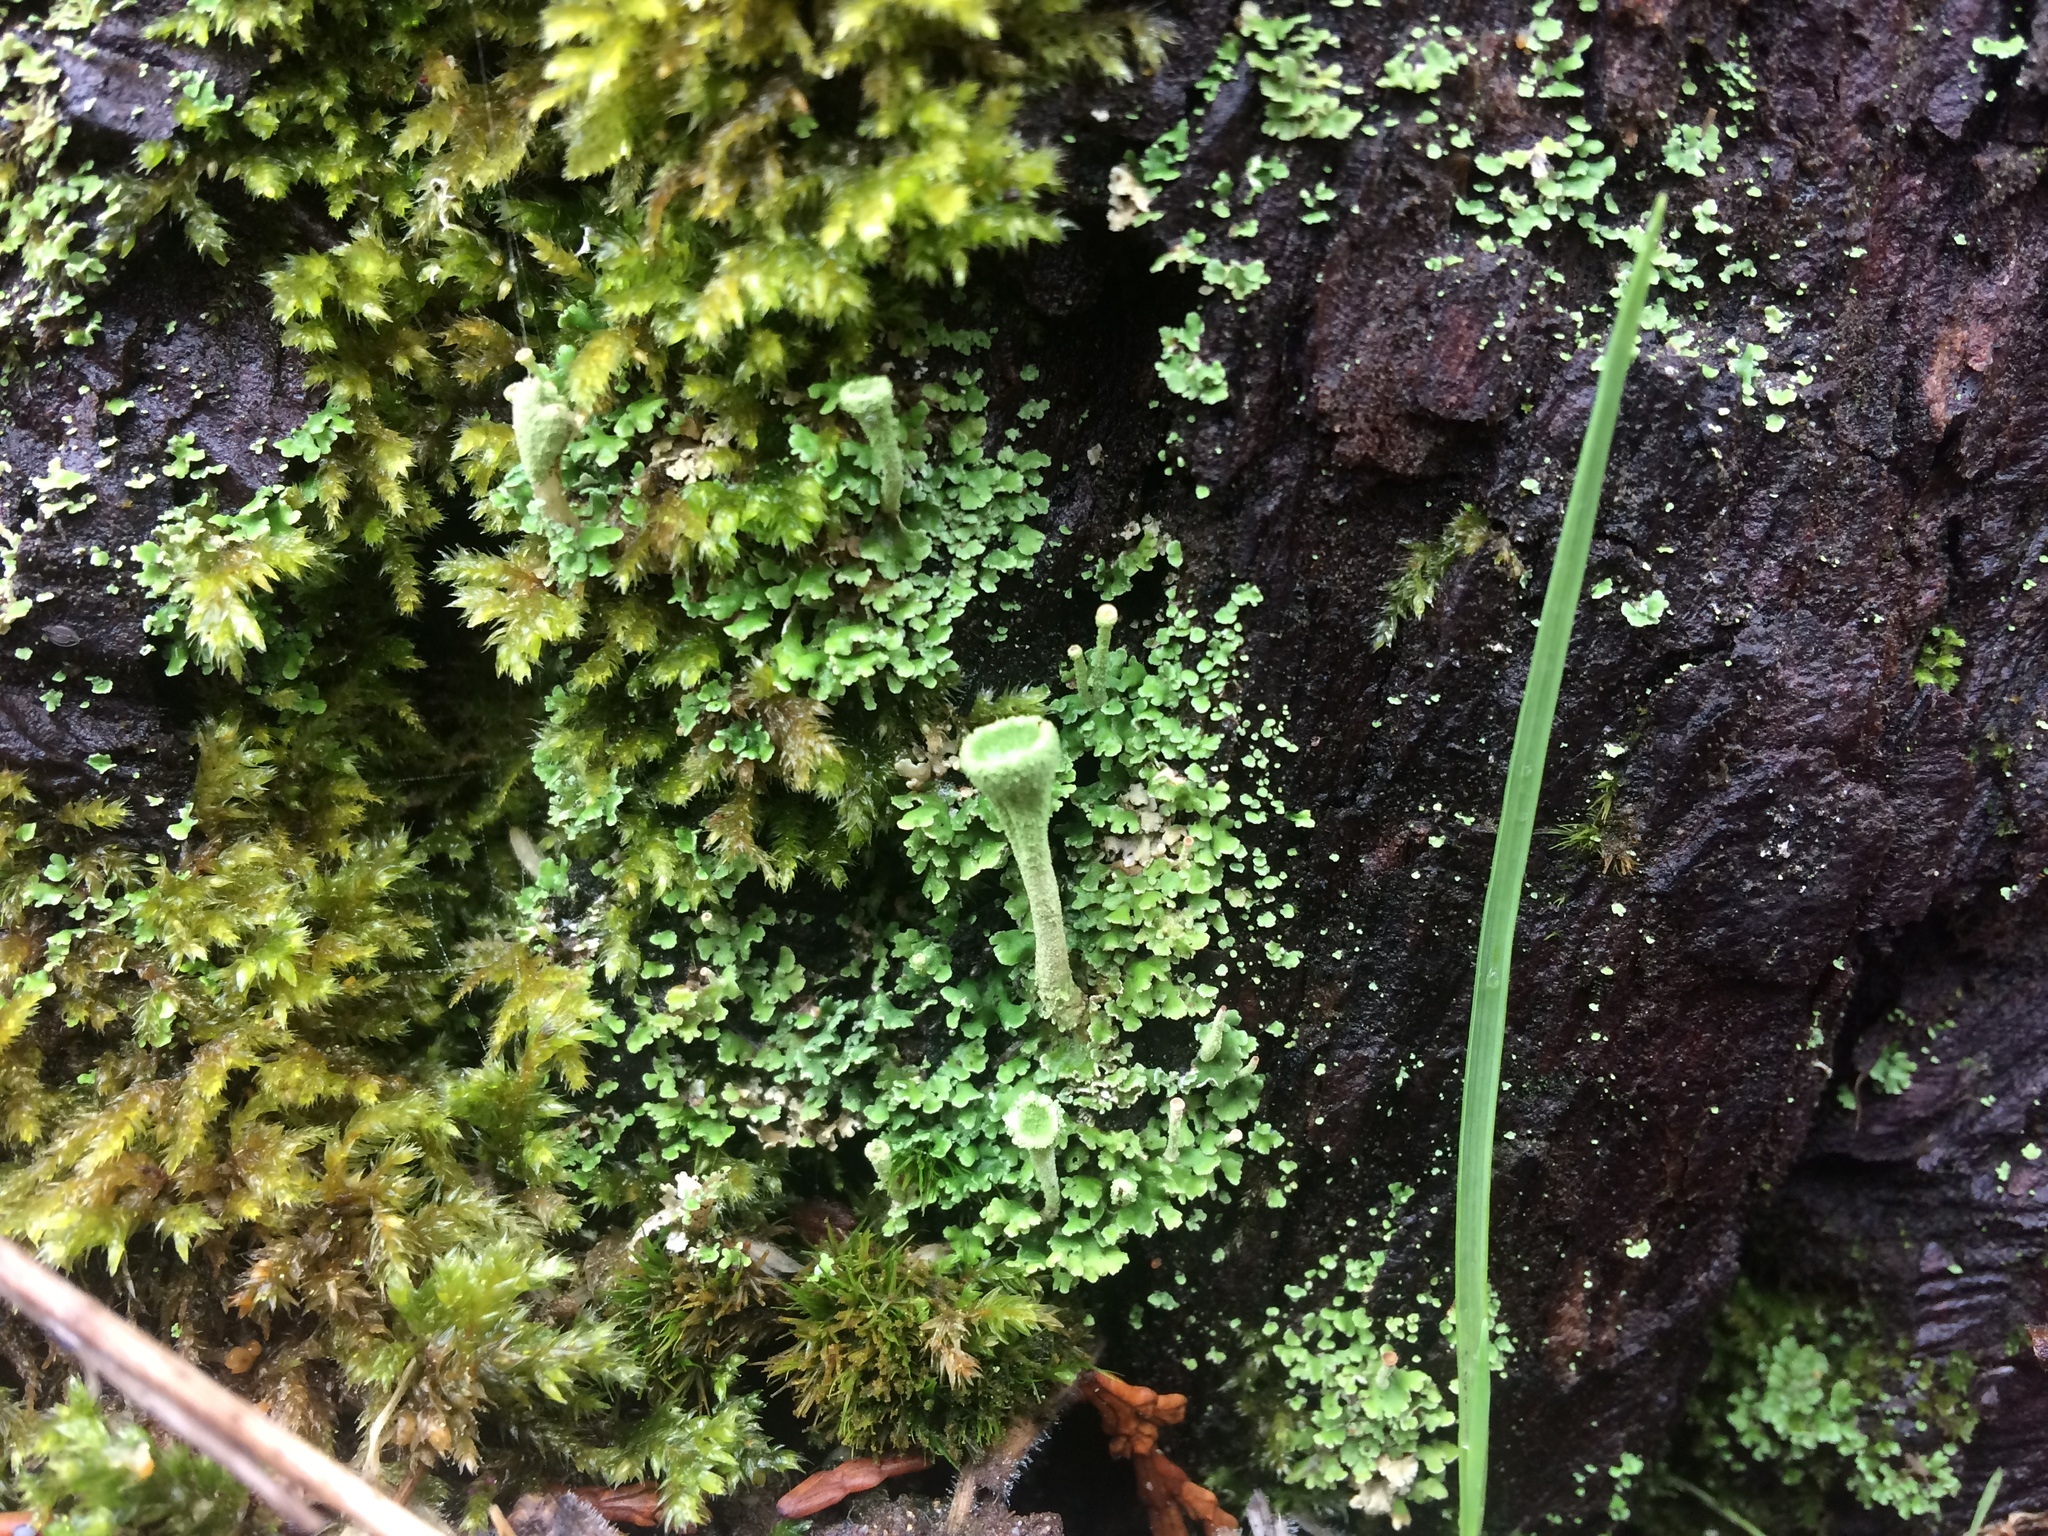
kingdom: Fungi
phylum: Ascomycota
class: Lecanoromycetes
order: Lecanorales
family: Cladoniaceae
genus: Cladonia
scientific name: Cladonia carneola
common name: Crowned pixie-cup
